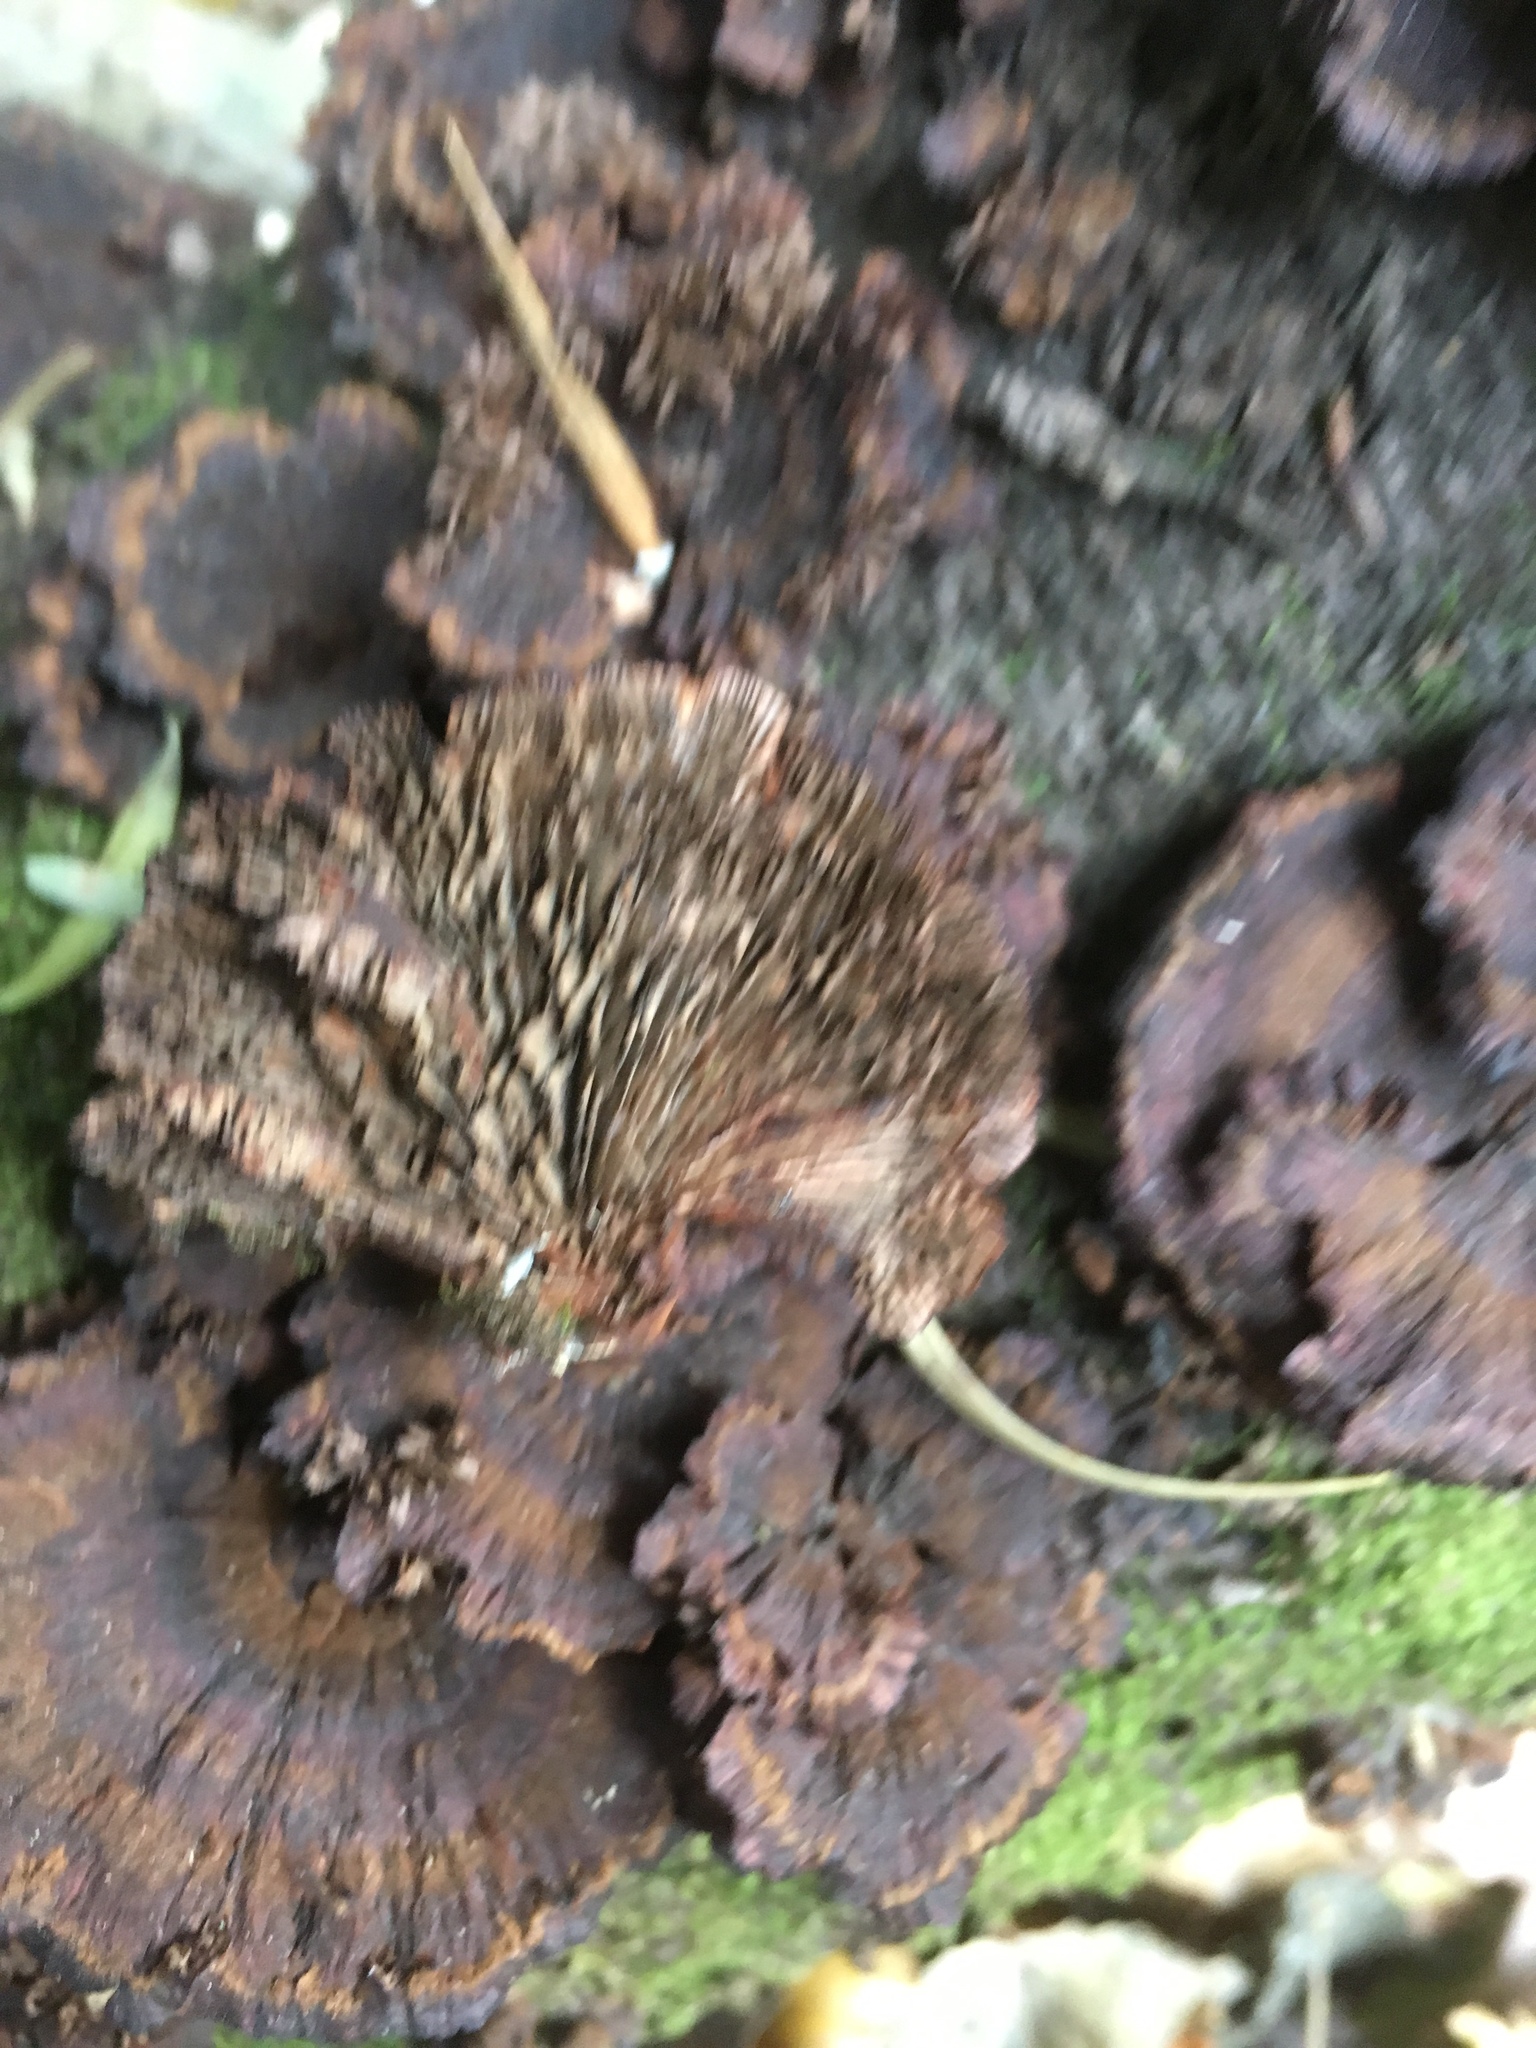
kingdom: Fungi
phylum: Basidiomycota
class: Agaricomycetes
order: Polyporales
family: Polyporaceae
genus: Daedaleopsis
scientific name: Daedaleopsis tricolor
